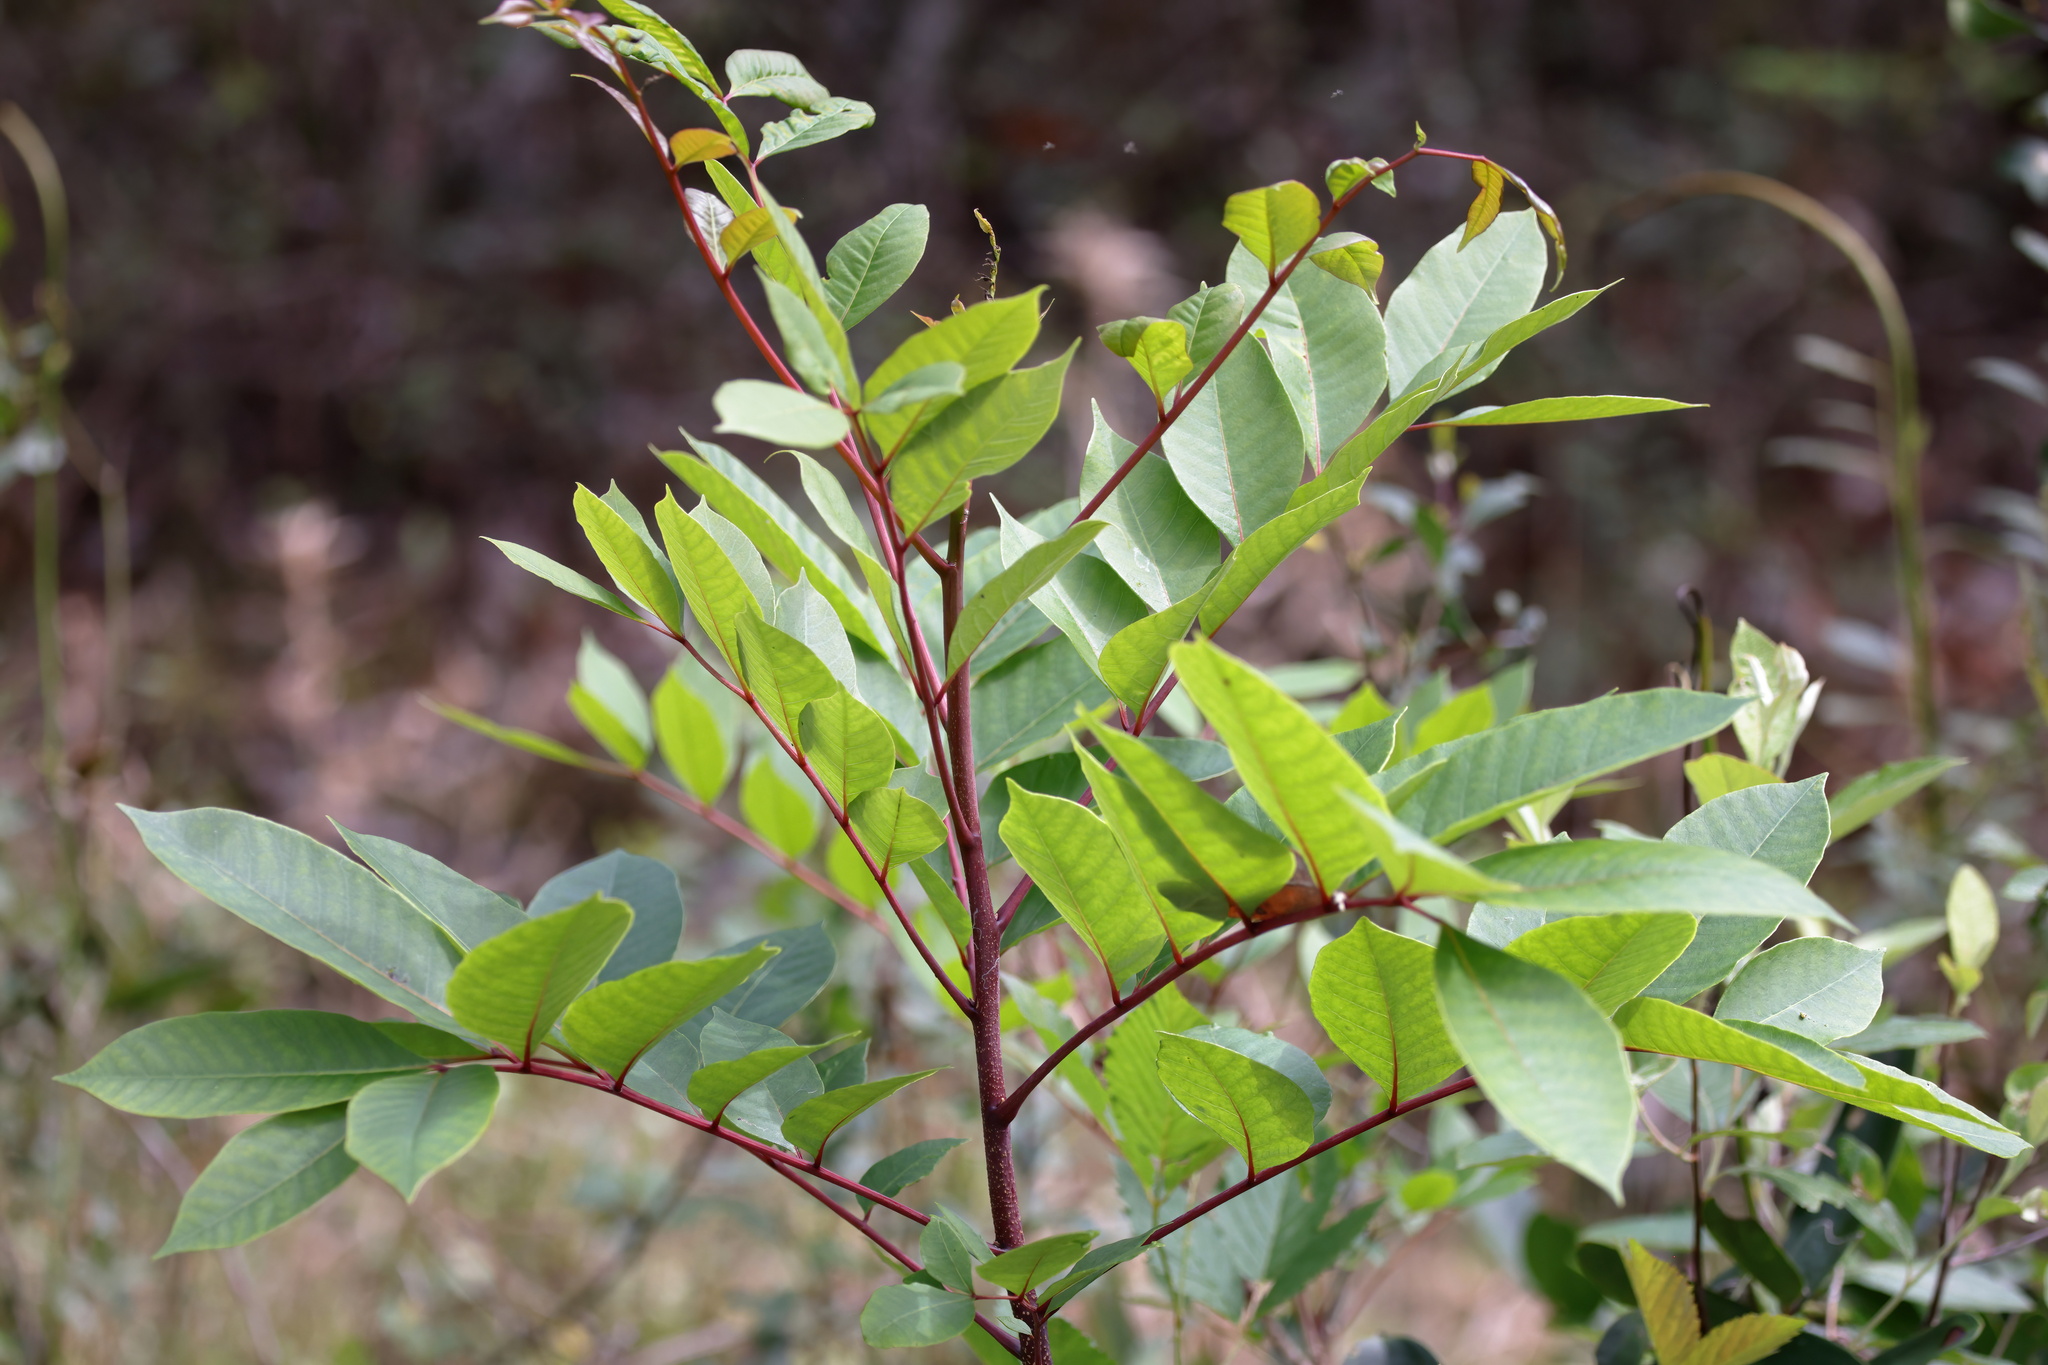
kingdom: Plantae
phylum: Tracheophyta
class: Magnoliopsida
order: Sapindales
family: Anacardiaceae
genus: Toxicodendron
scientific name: Toxicodendron vernix
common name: Poison sumac
